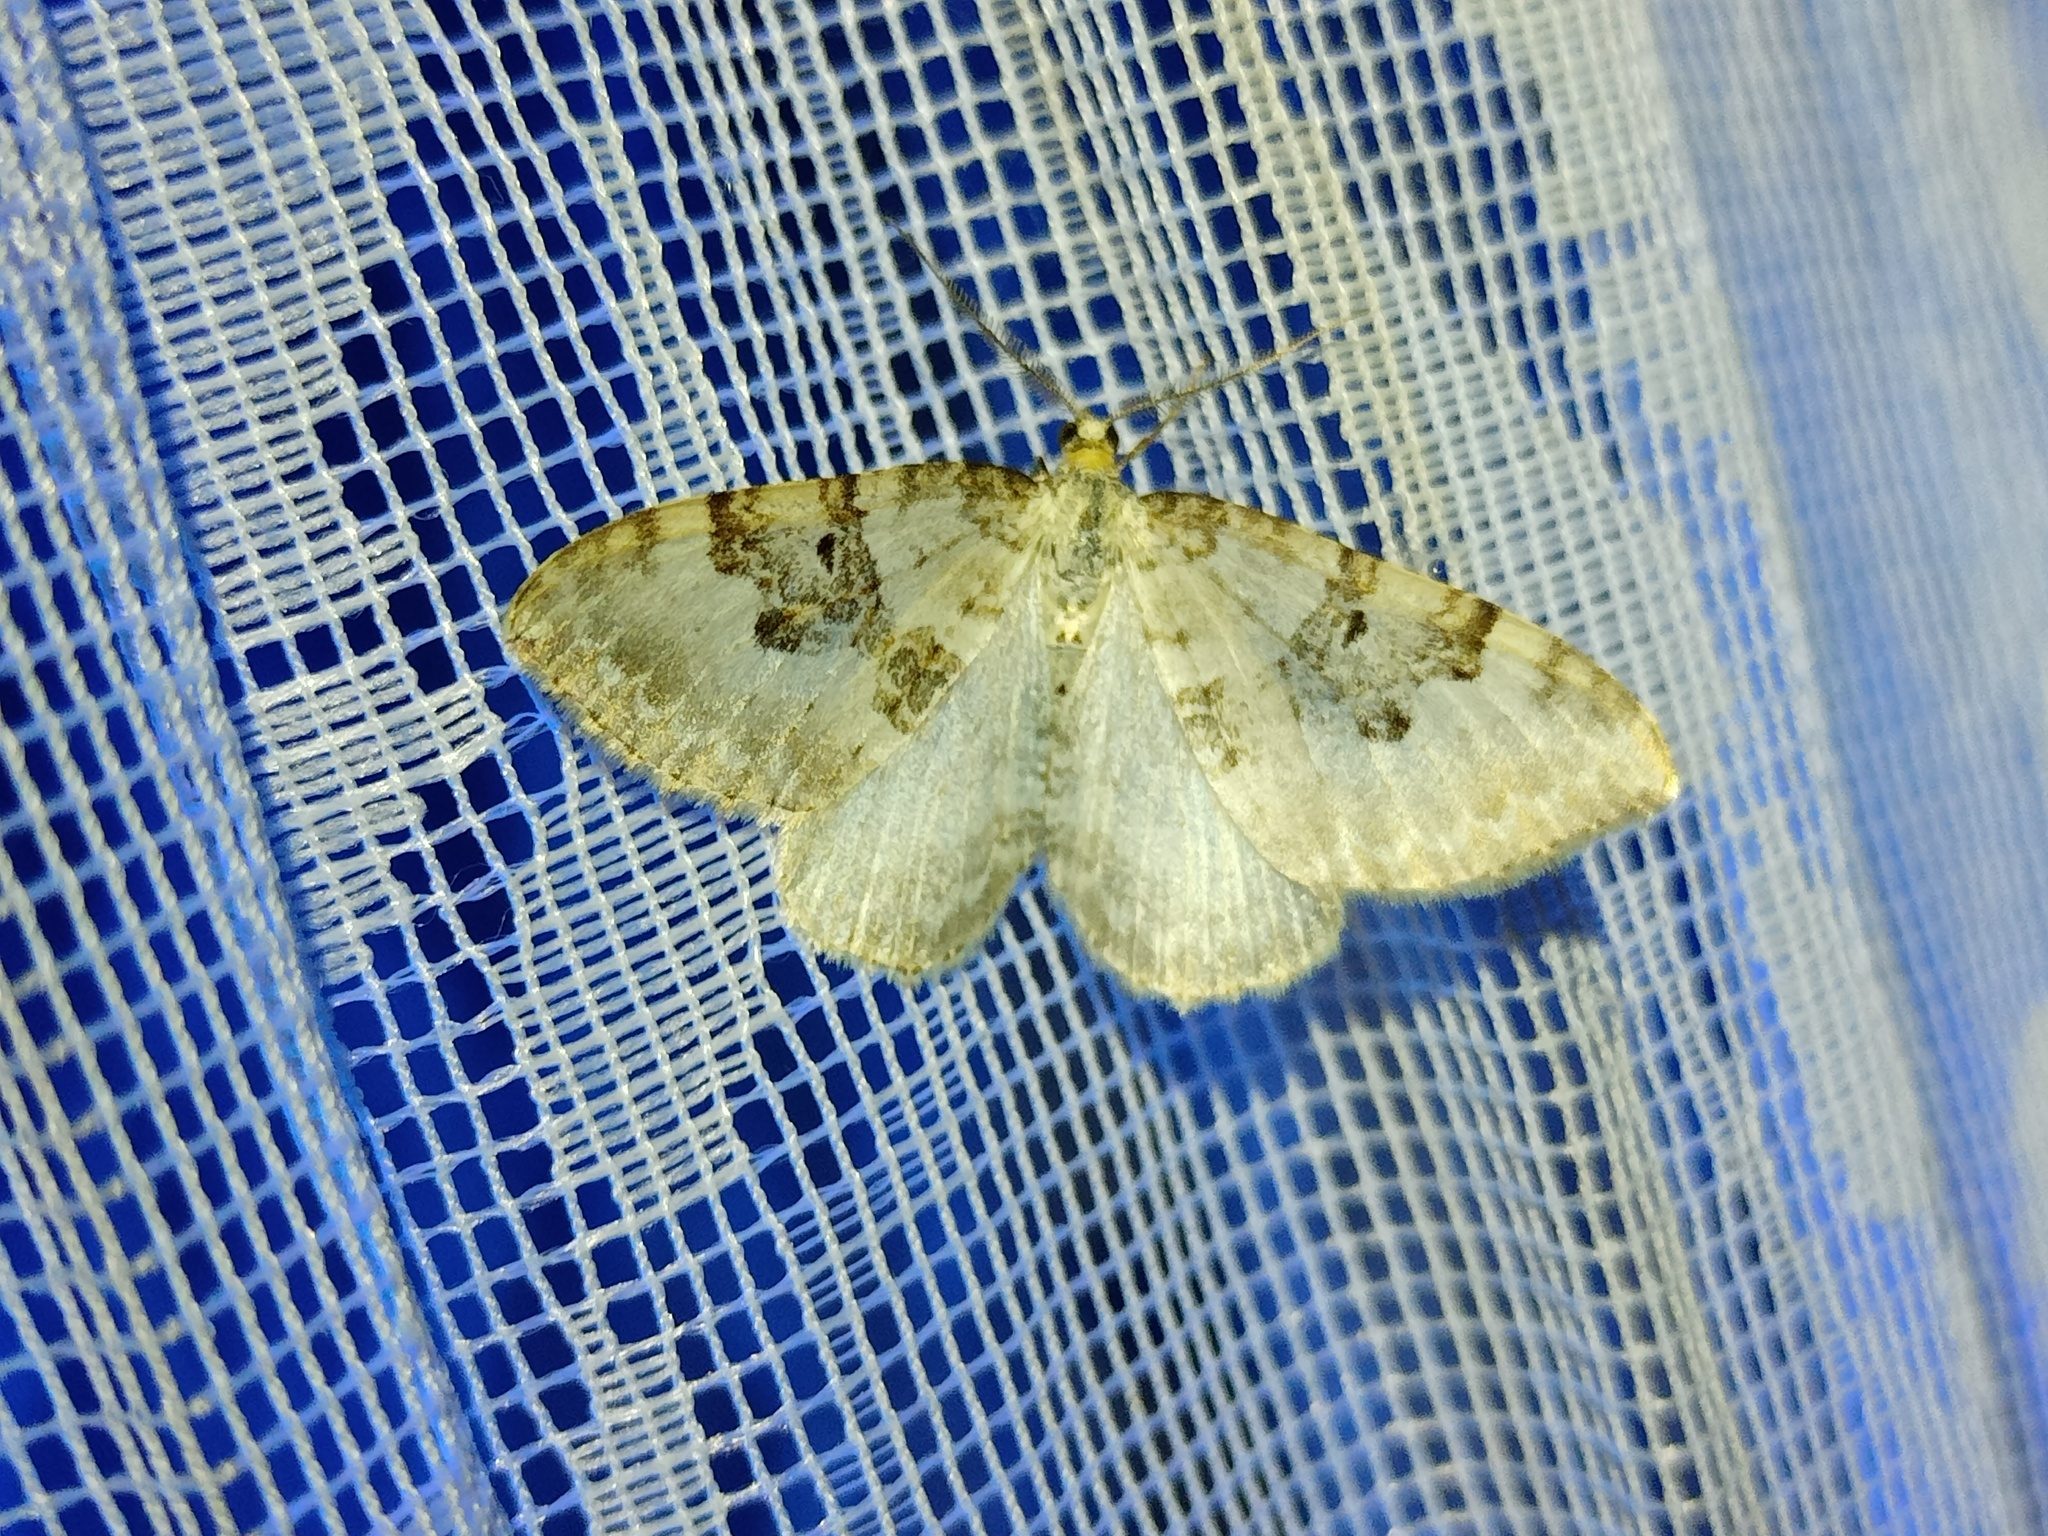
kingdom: Animalia
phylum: Arthropoda
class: Insecta
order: Lepidoptera
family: Geometridae
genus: Xanthorhoe
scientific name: Xanthorhoe montanata
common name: Silver-ground carpet
